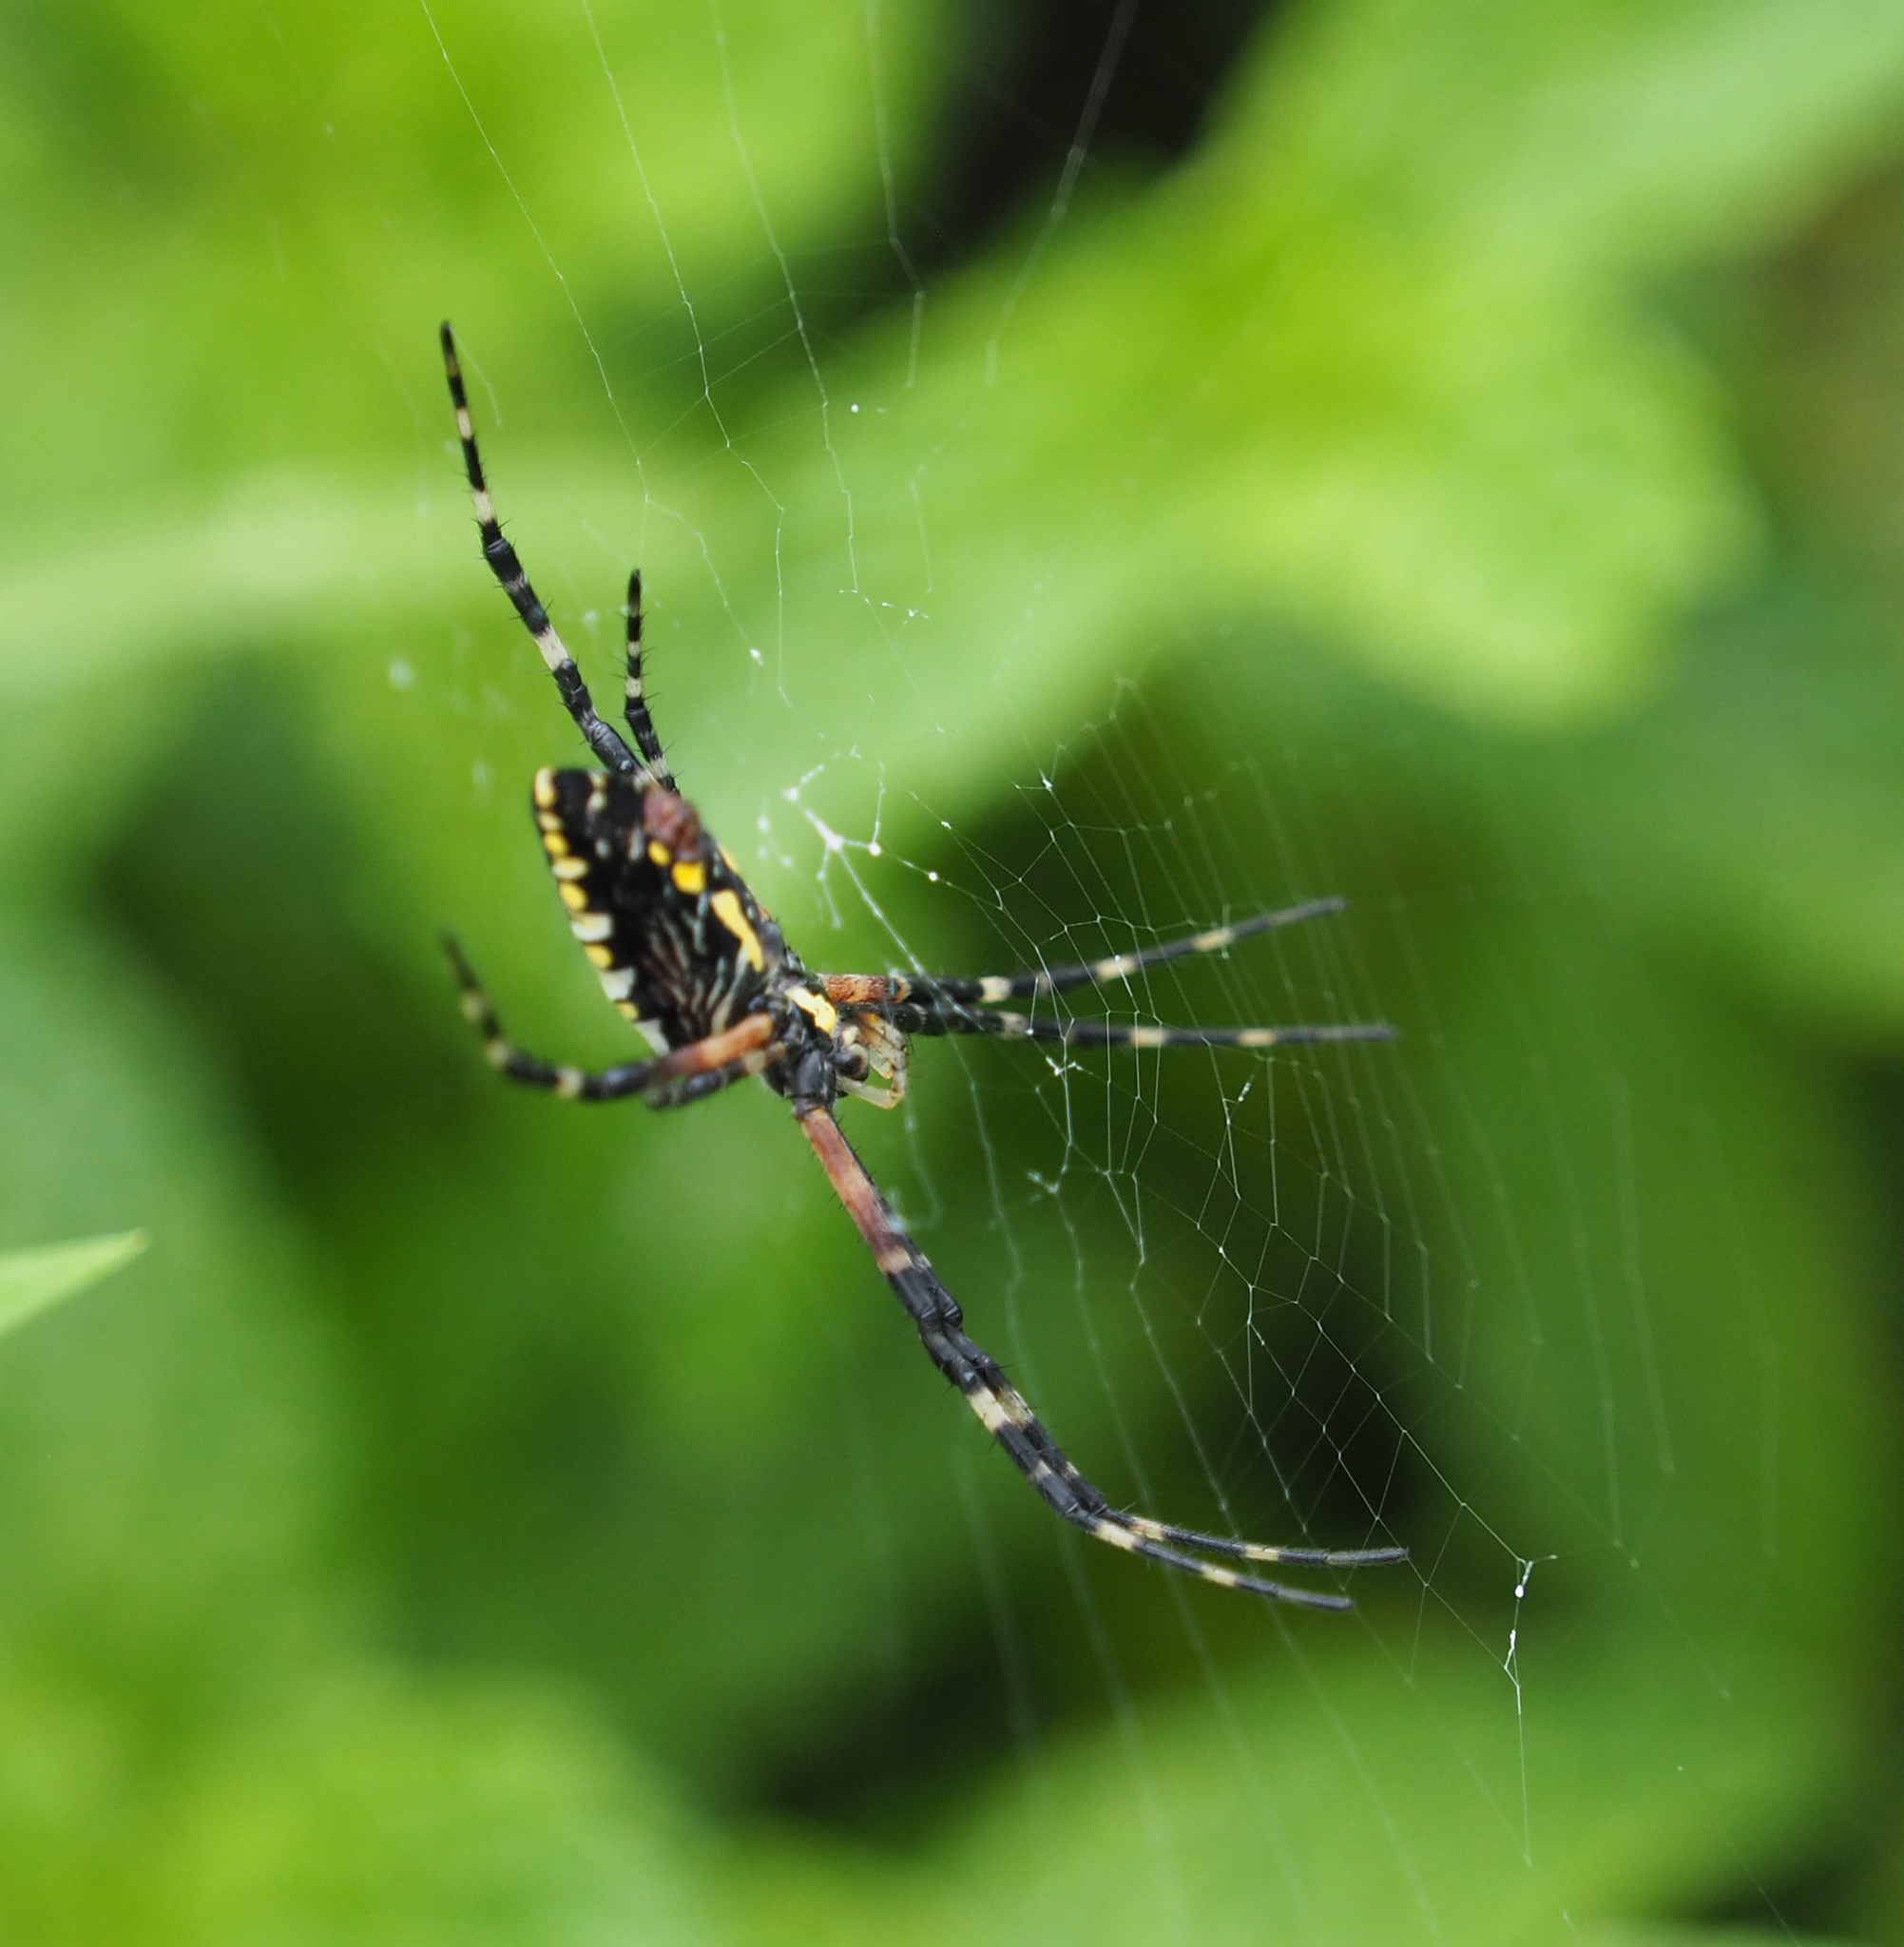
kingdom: Animalia
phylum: Arthropoda
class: Arachnida
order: Araneae
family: Araneidae
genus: Argiope
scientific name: Argiope aurantia
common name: Orb weavers
